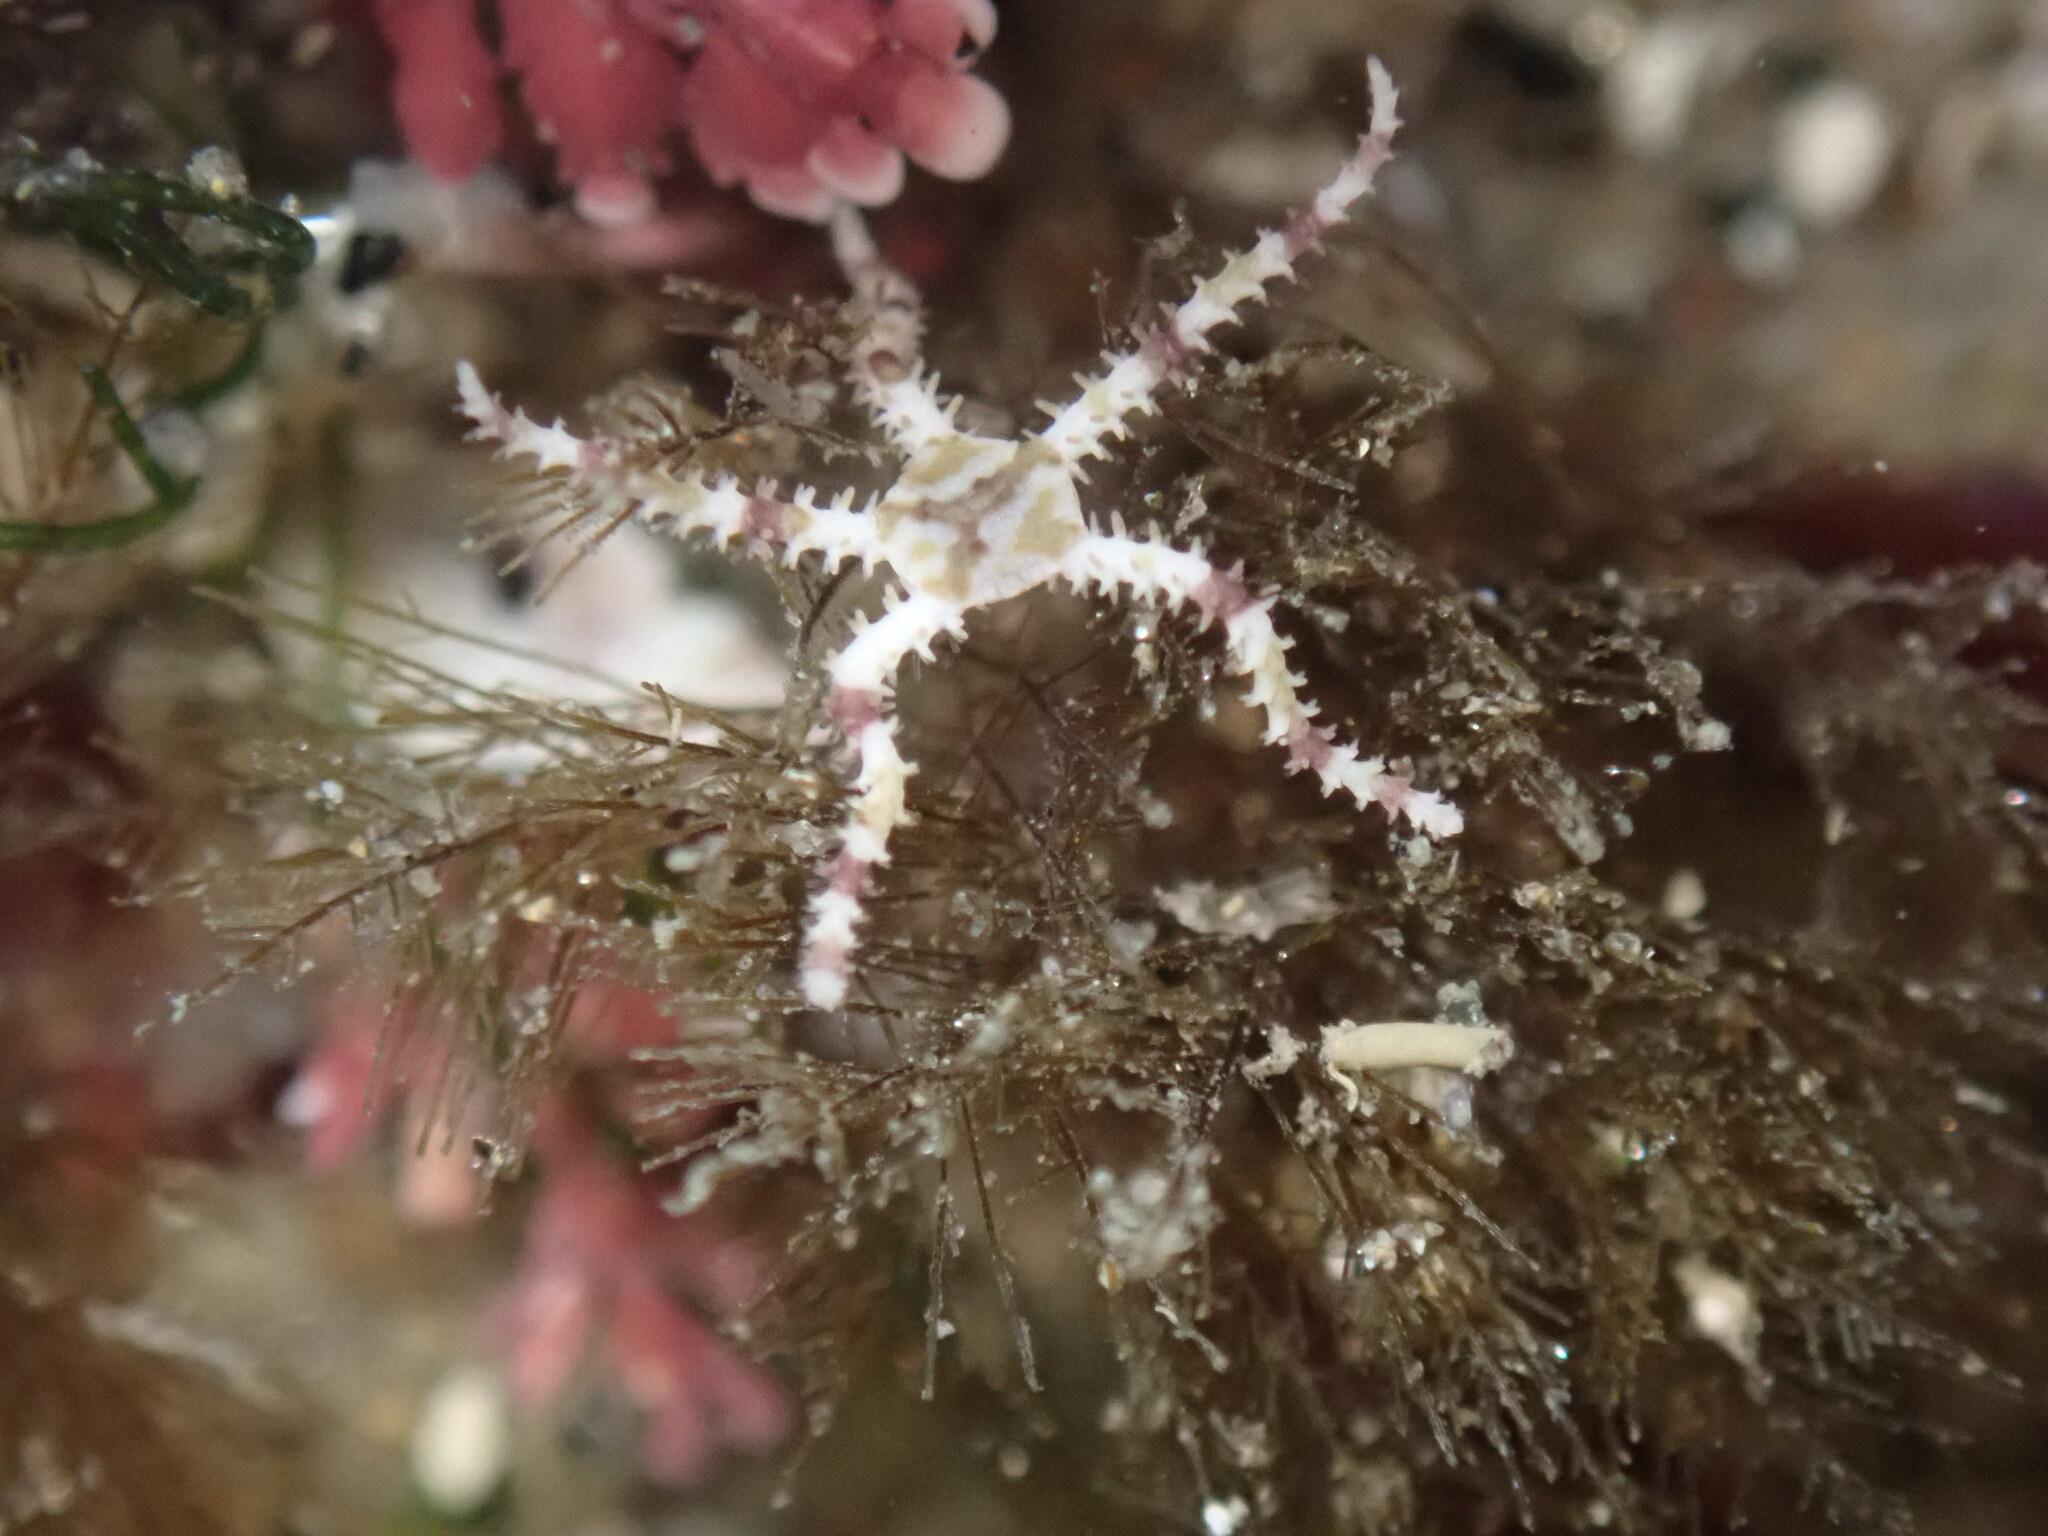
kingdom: Animalia
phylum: Echinodermata
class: Ophiuroidea
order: Amphilepidida
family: Ophionereididae
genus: Ophionereis
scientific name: Ophionereis diabloensis
